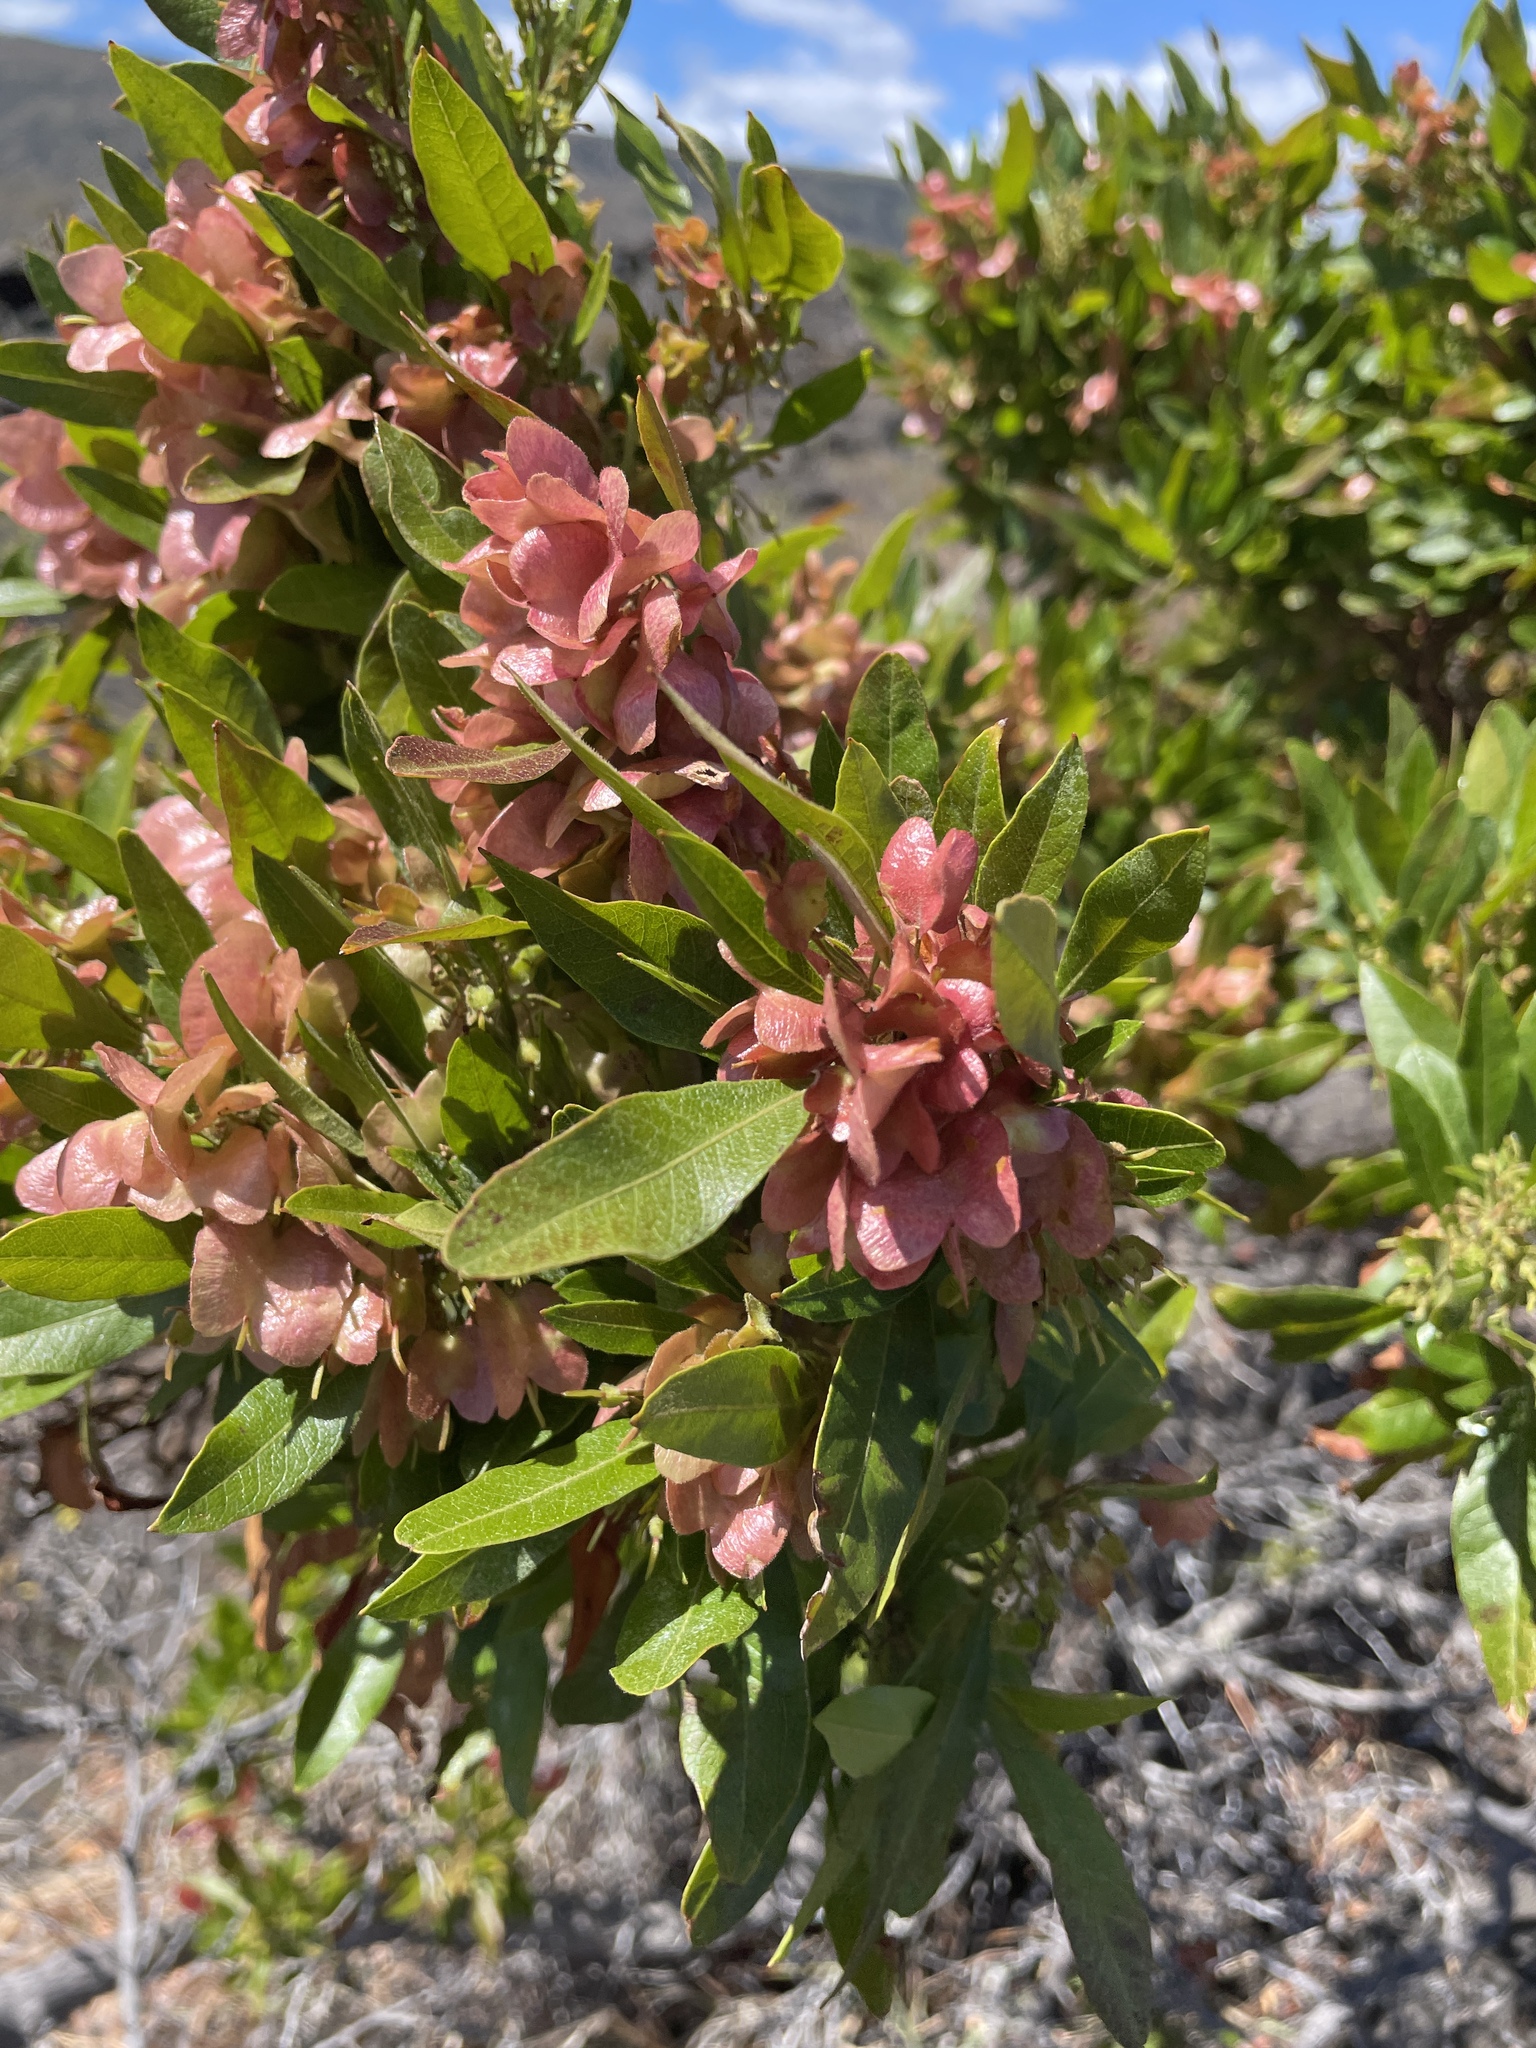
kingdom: Plantae
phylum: Tracheophyta
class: Magnoliopsida
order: Sapindales
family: Sapindaceae
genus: Dodonaea
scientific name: Dodonaea viscosa
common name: Hopbush
